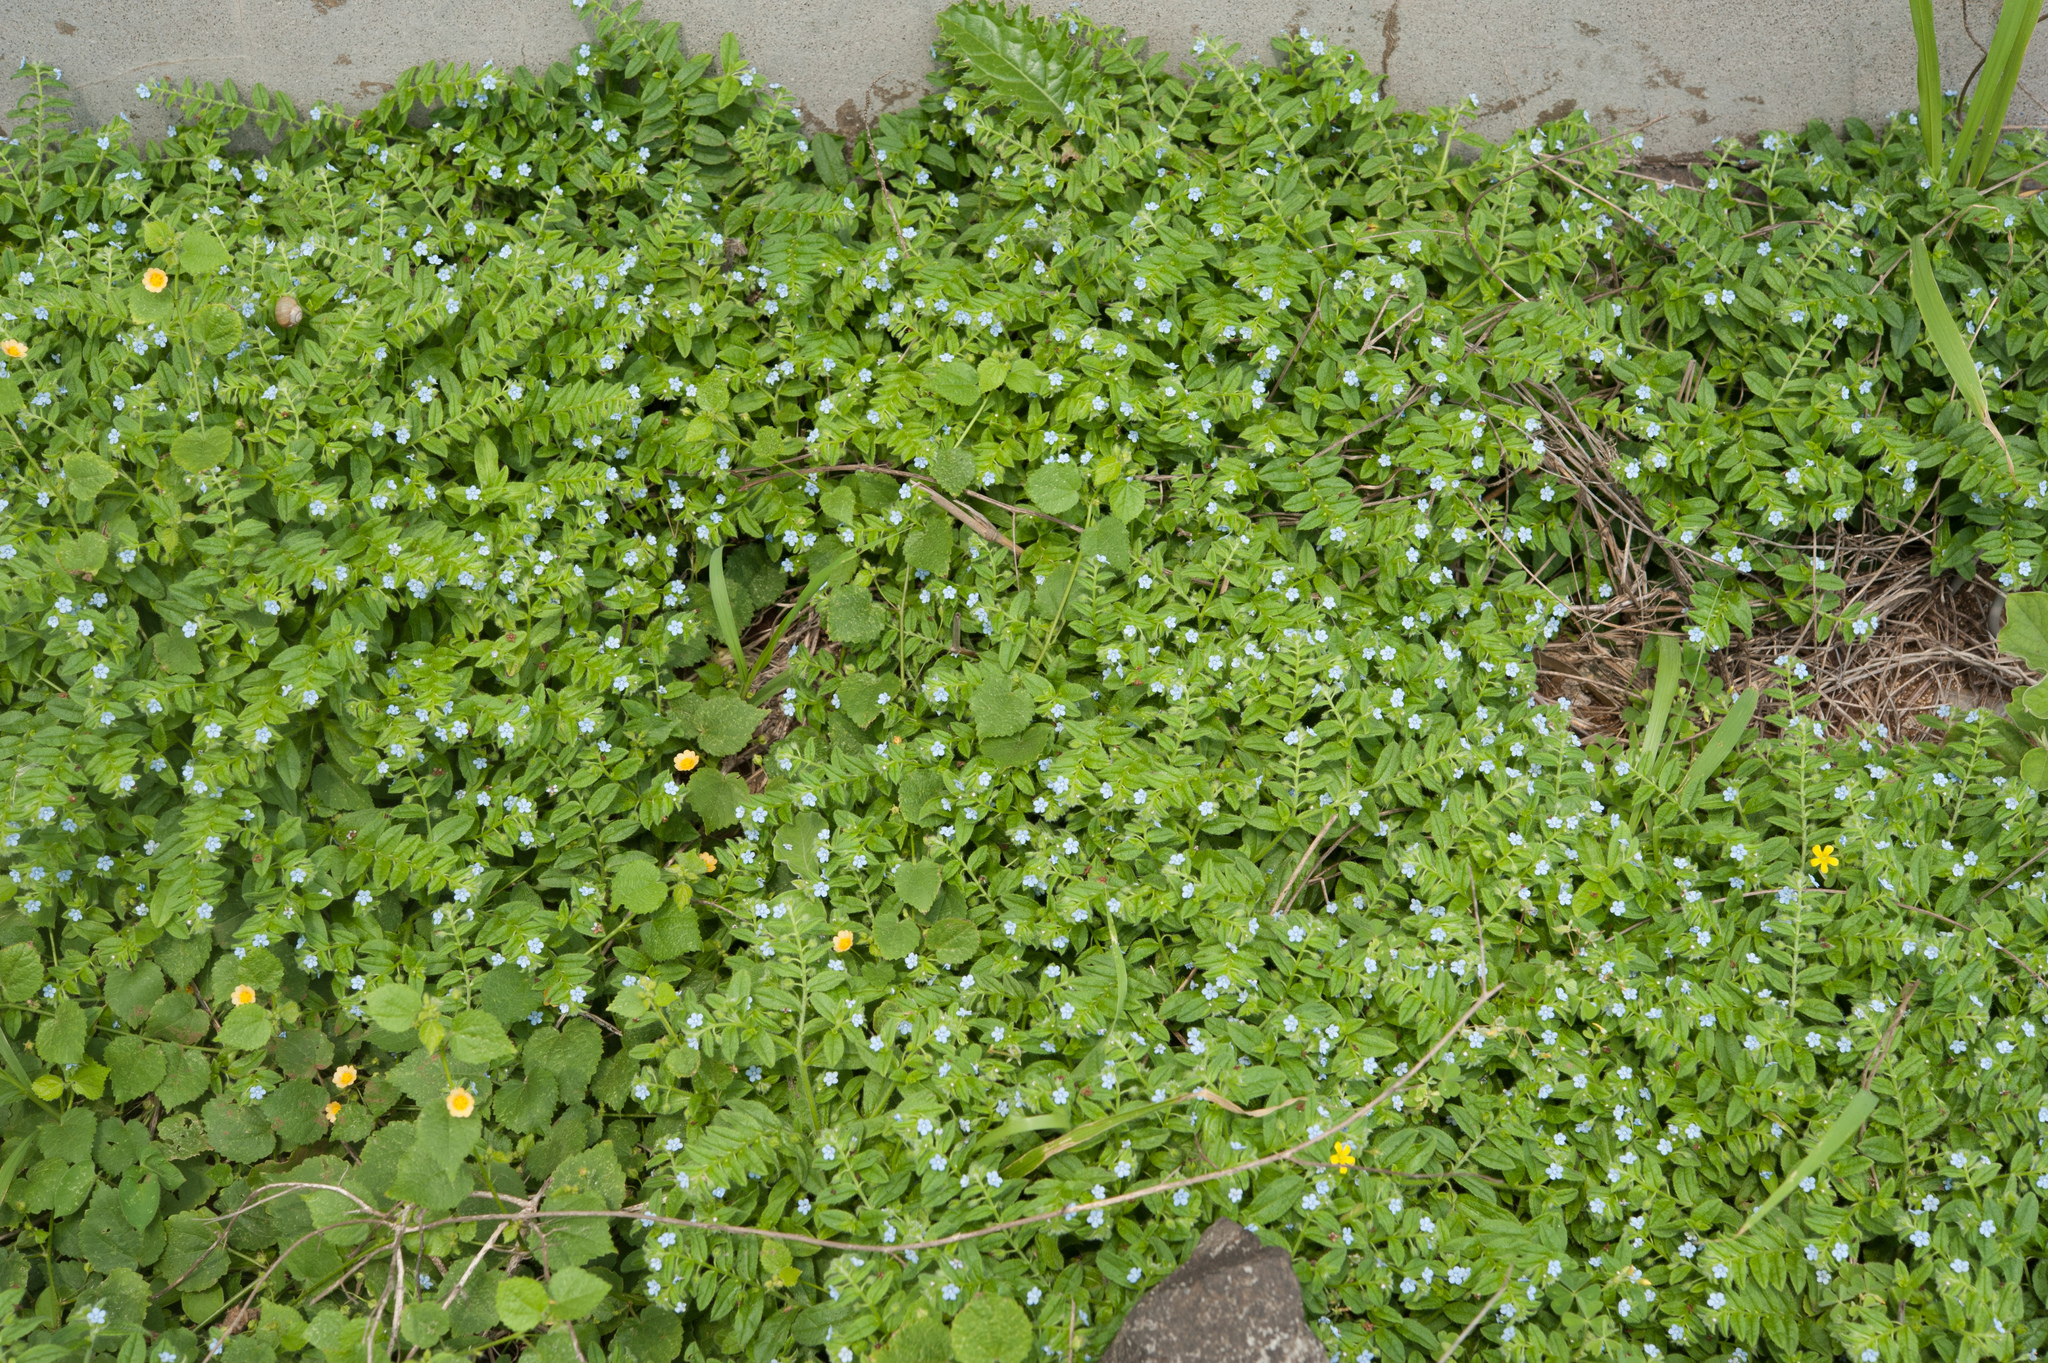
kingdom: Plantae
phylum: Tracheophyta
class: Magnoliopsida
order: Boraginales
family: Boraginaceae
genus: Thyrocarpus
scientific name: Thyrocarpus sampsonii
